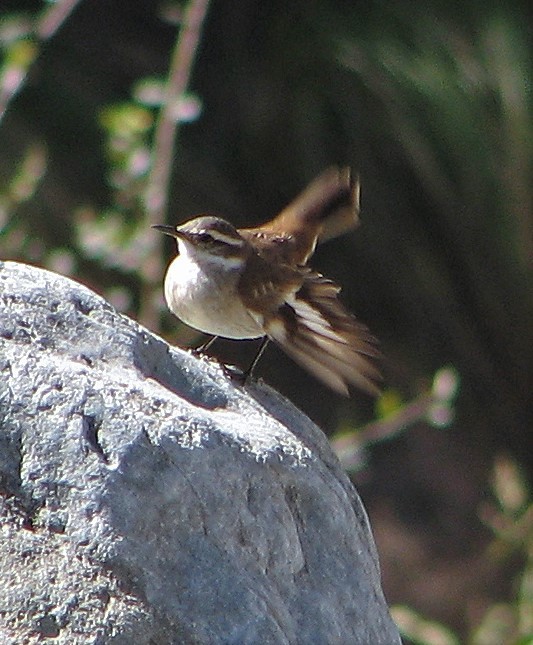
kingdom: Animalia
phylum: Chordata
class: Aves
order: Passeriformes
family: Furnariidae
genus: Cinclodes
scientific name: Cinclodes fuscus
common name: Buff-winged cinclodes
